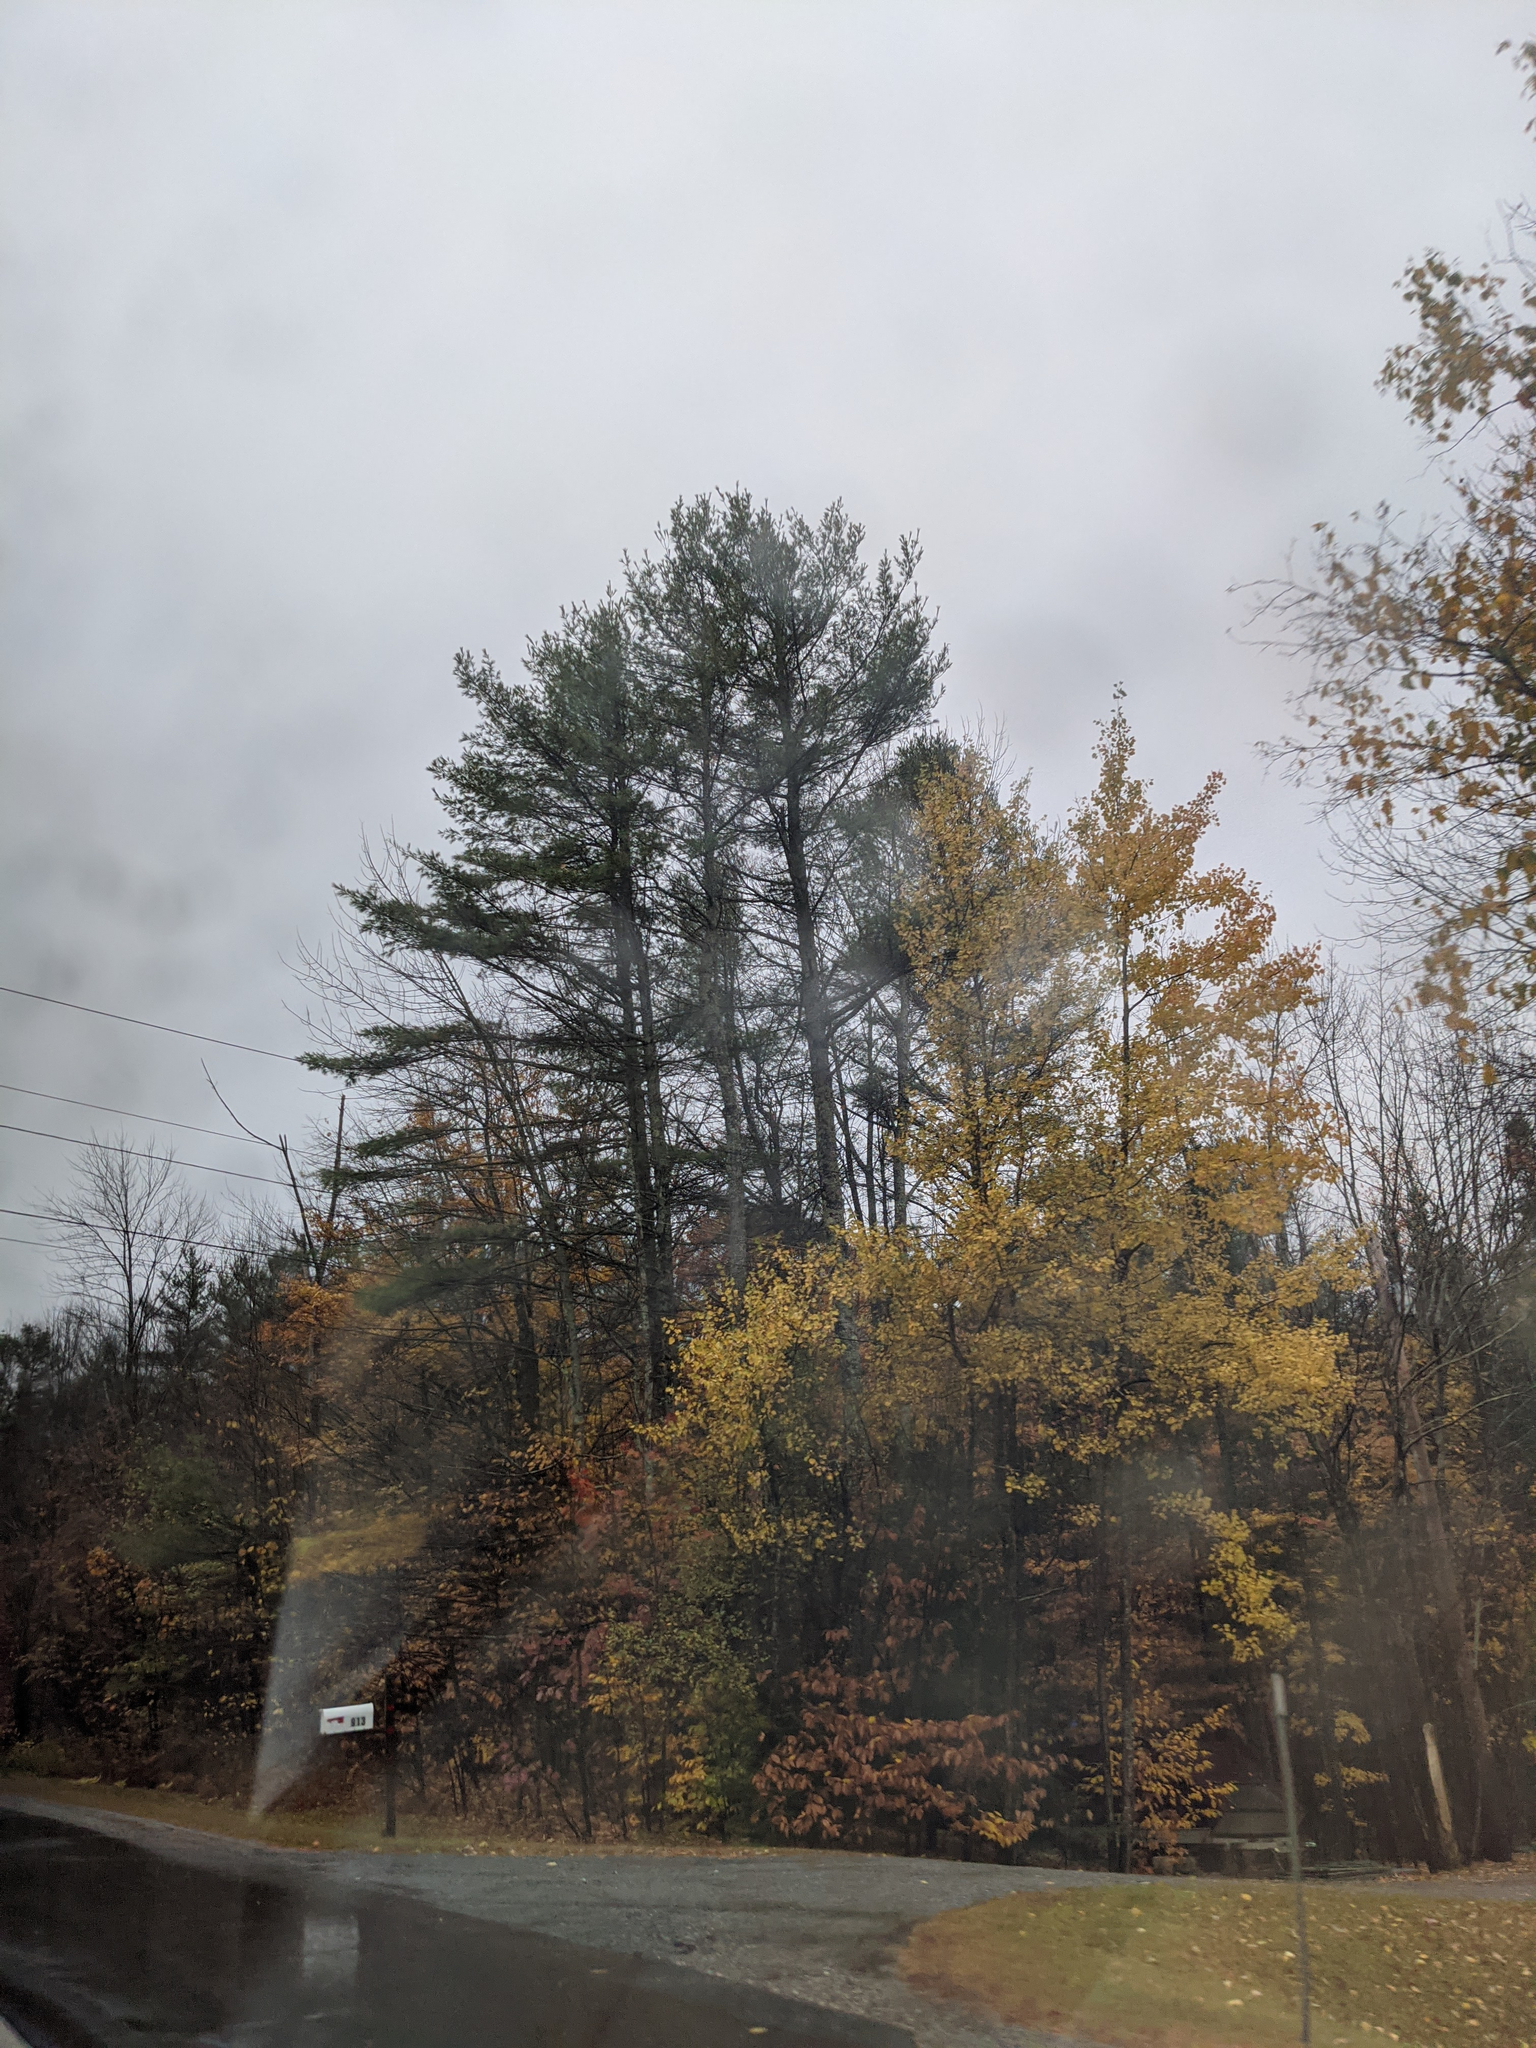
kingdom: Plantae
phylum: Tracheophyta
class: Pinopsida
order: Pinales
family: Pinaceae
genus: Pinus
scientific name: Pinus strobus
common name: Weymouth pine
